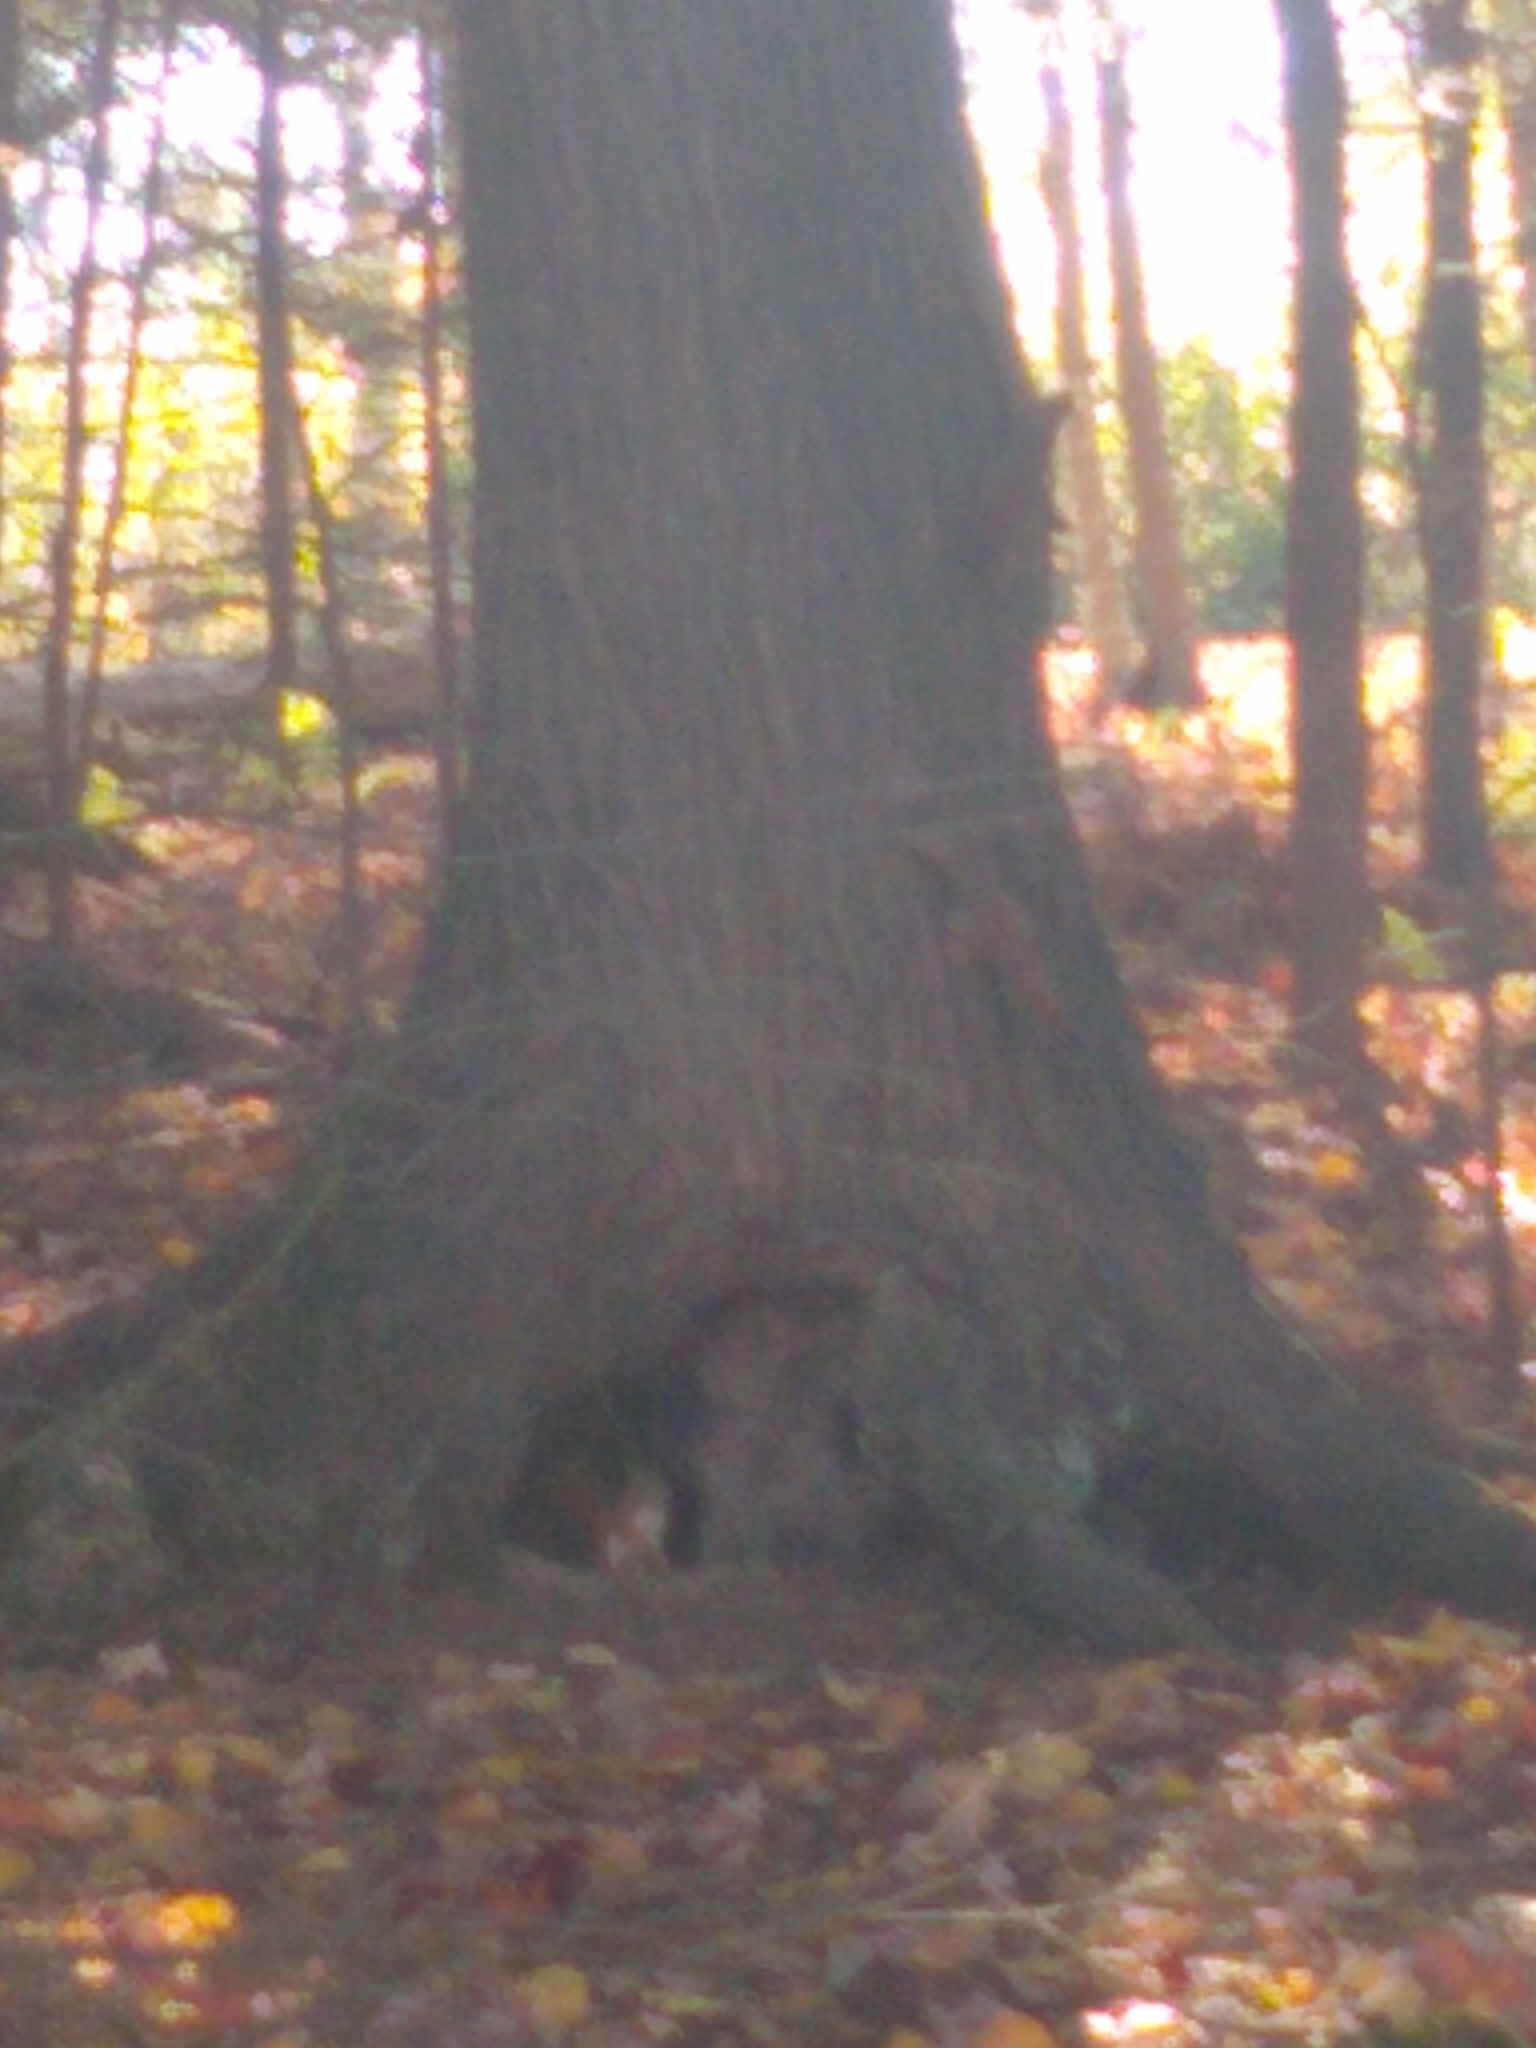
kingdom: Animalia
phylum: Chordata
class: Mammalia
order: Rodentia
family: Sciuridae
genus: Tamiasciurus
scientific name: Tamiasciurus hudsonicus
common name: Red squirrel
